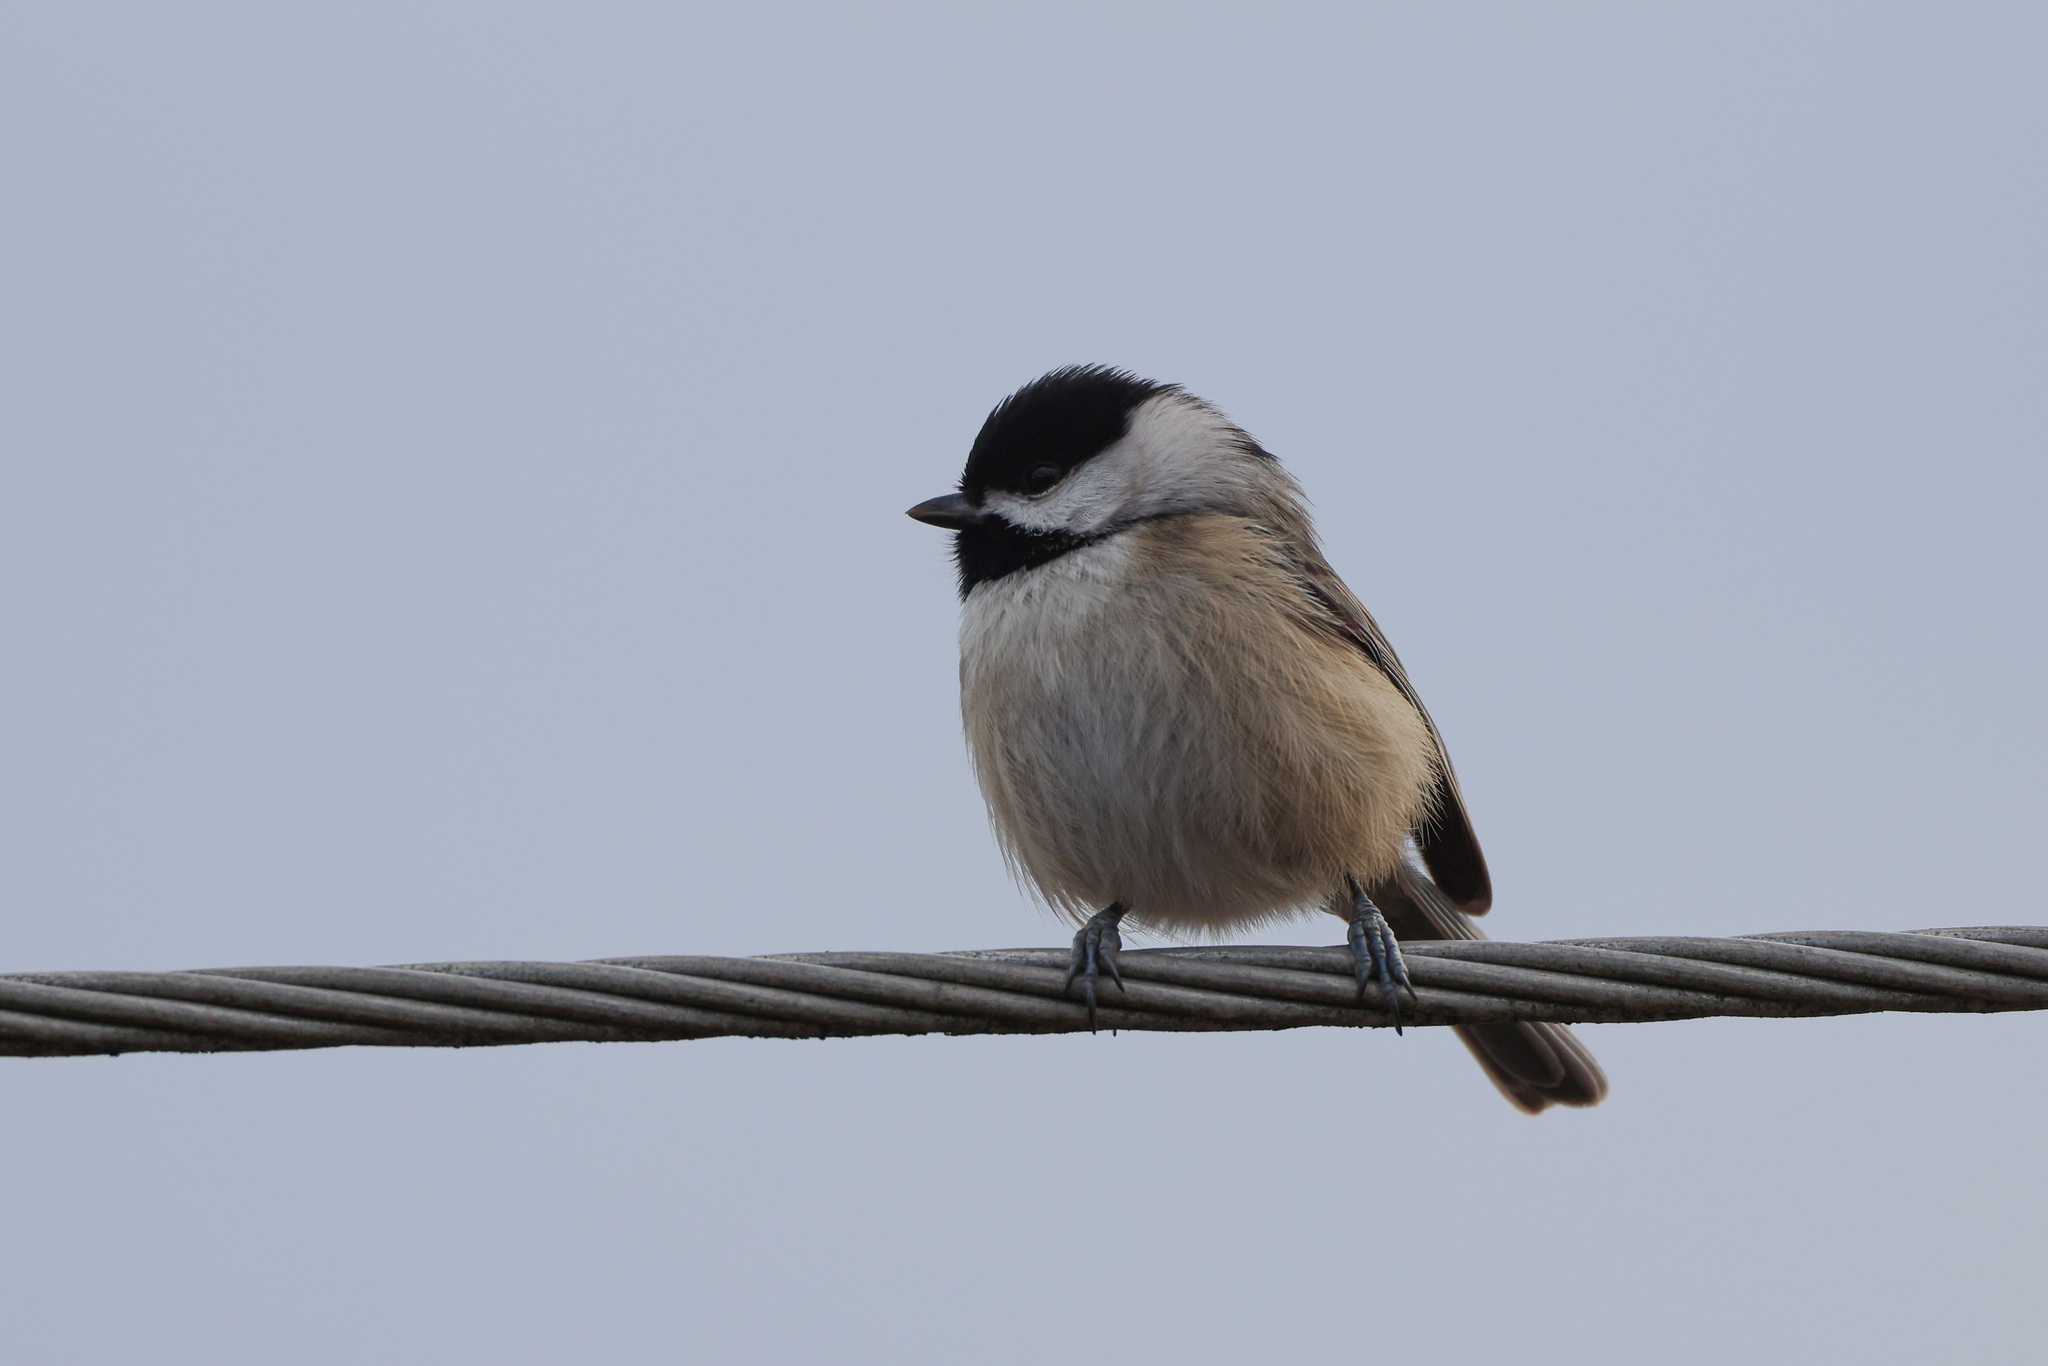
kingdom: Animalia
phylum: Chordata
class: Aves
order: Passeriformes
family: Paridae
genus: Poecile
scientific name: Poecile carolinensis
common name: Carolina chickadee
